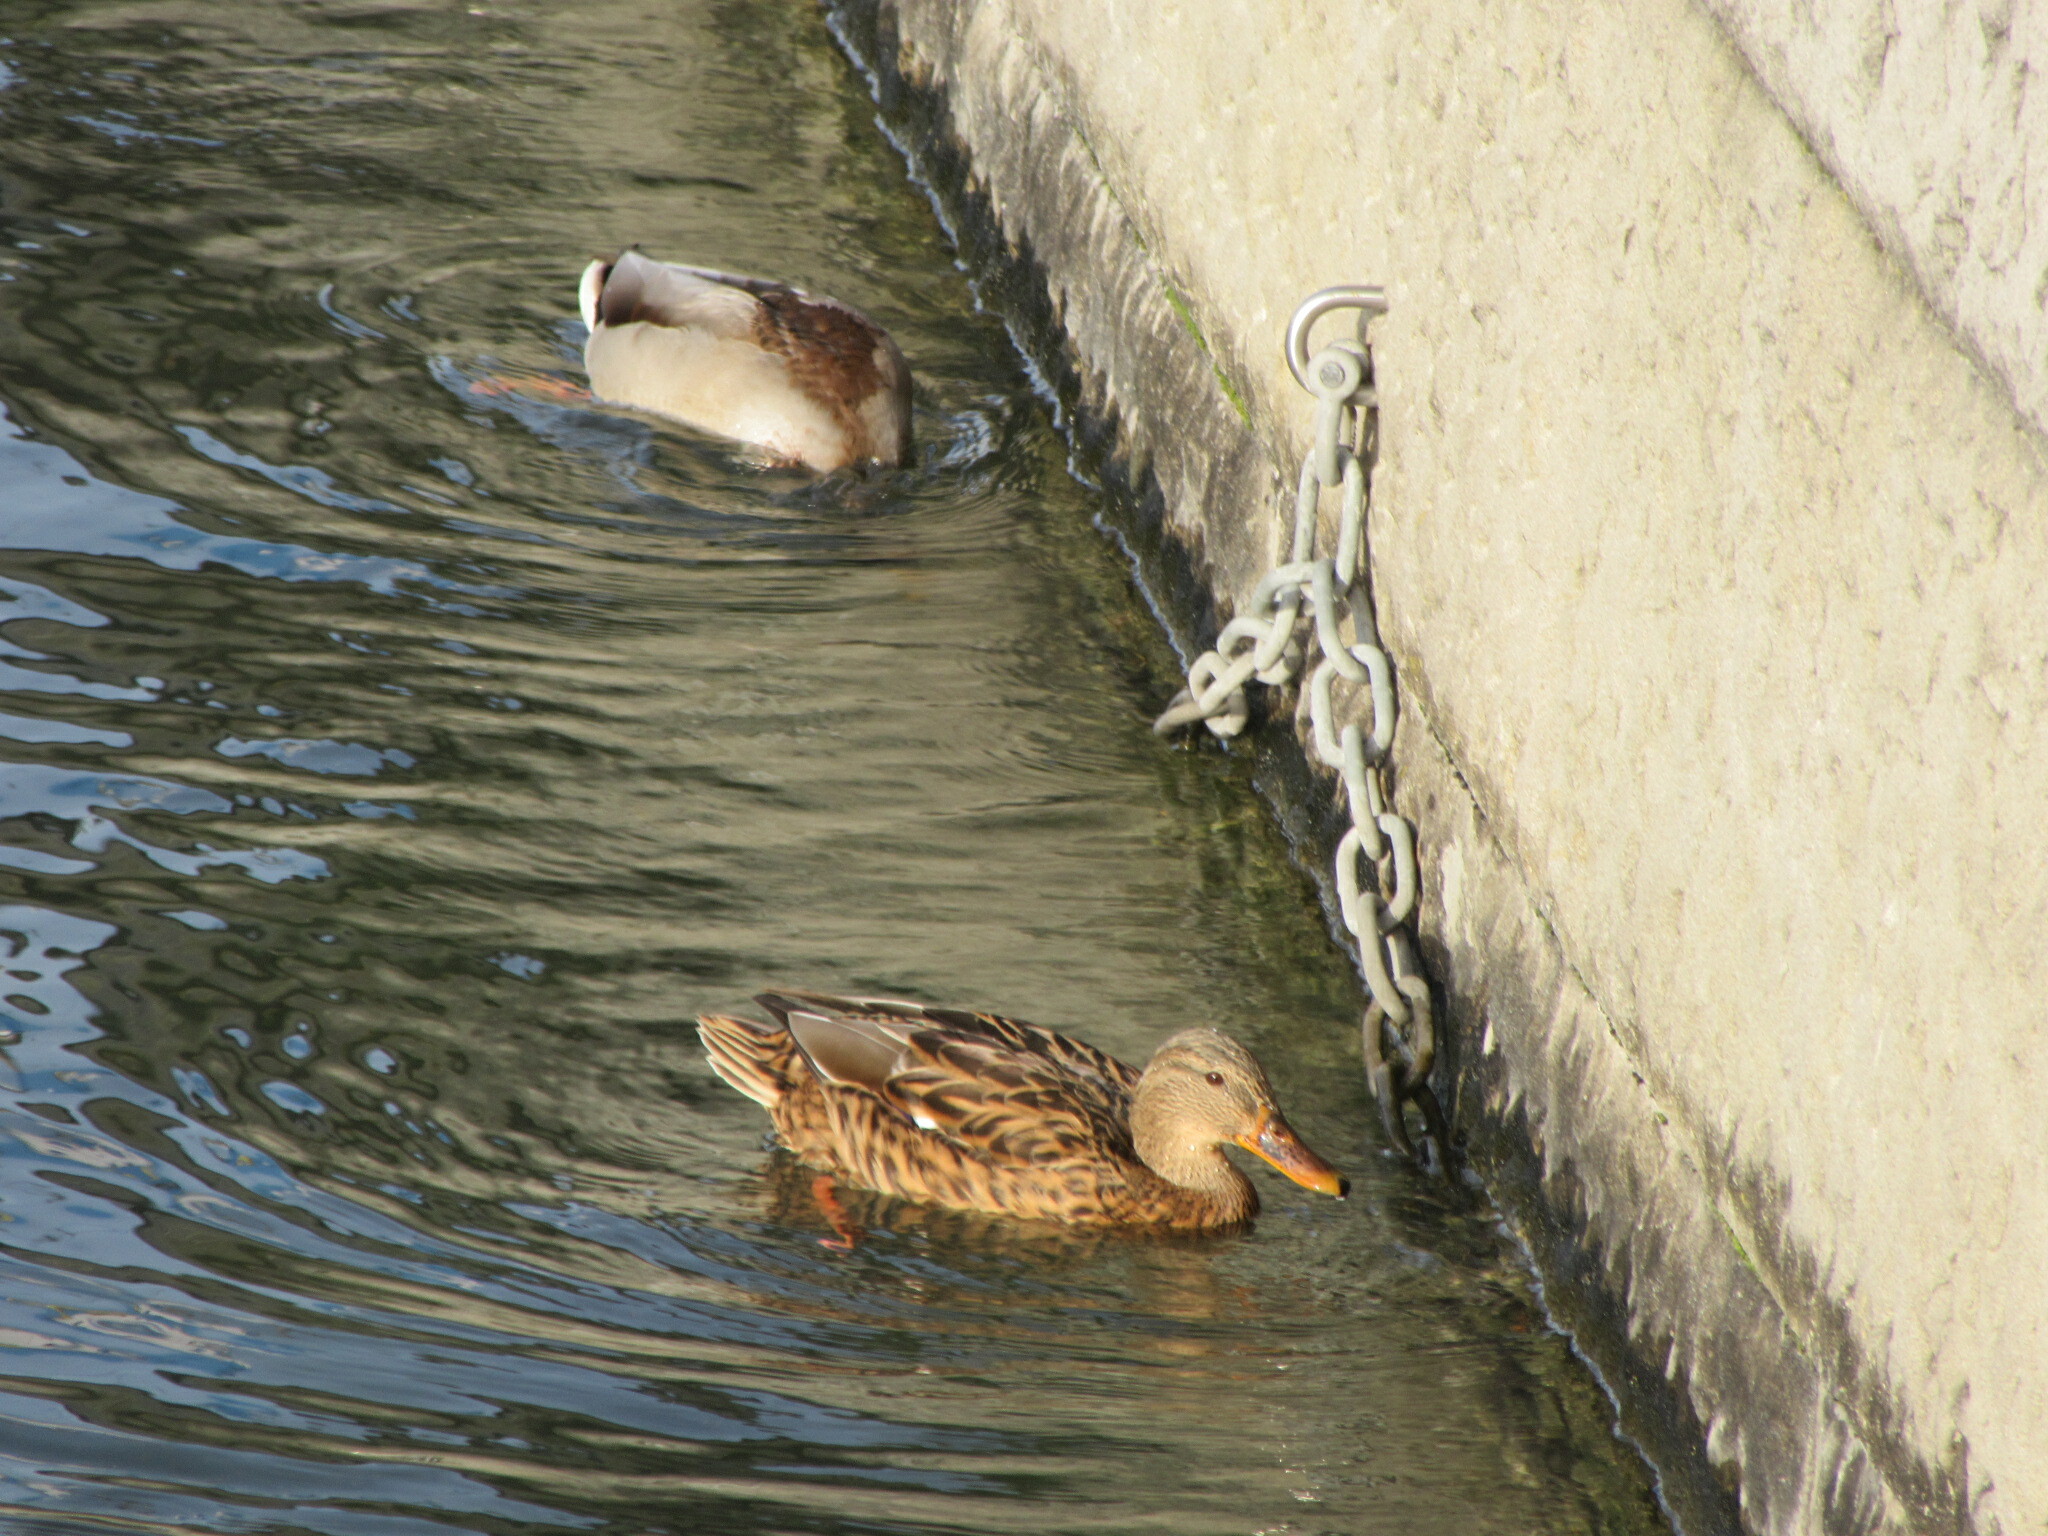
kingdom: Animalia
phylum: Chordata
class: Aves
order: Anseriformes
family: Anatidae
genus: Anas
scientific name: Anas platyrhynchos
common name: Mallard
